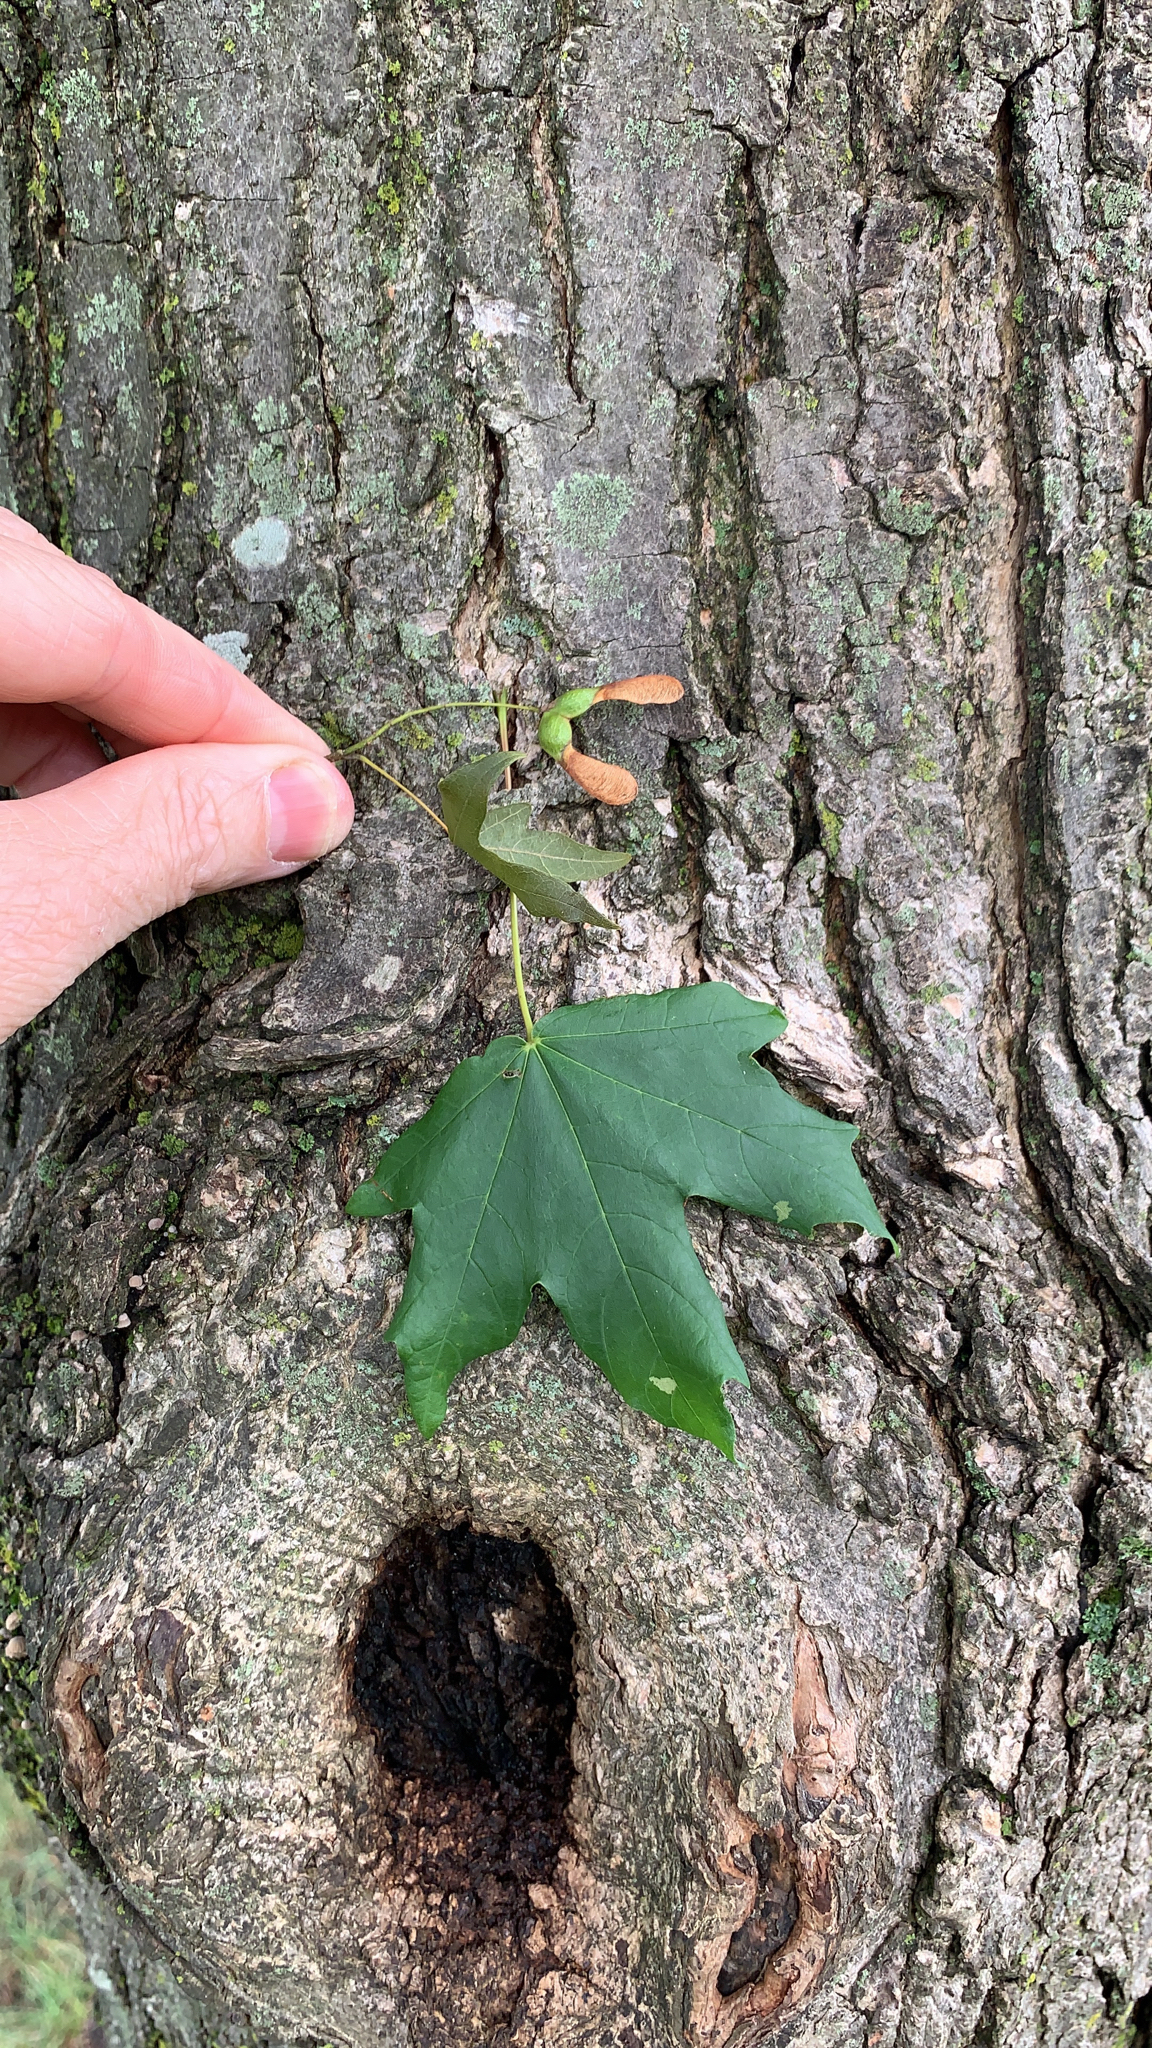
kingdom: Plantae
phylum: Tracheophyta
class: Magnoliopsida
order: Sapindales
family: Sapindaceae
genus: Acer
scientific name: Acer saccharum
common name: Sugar maple
